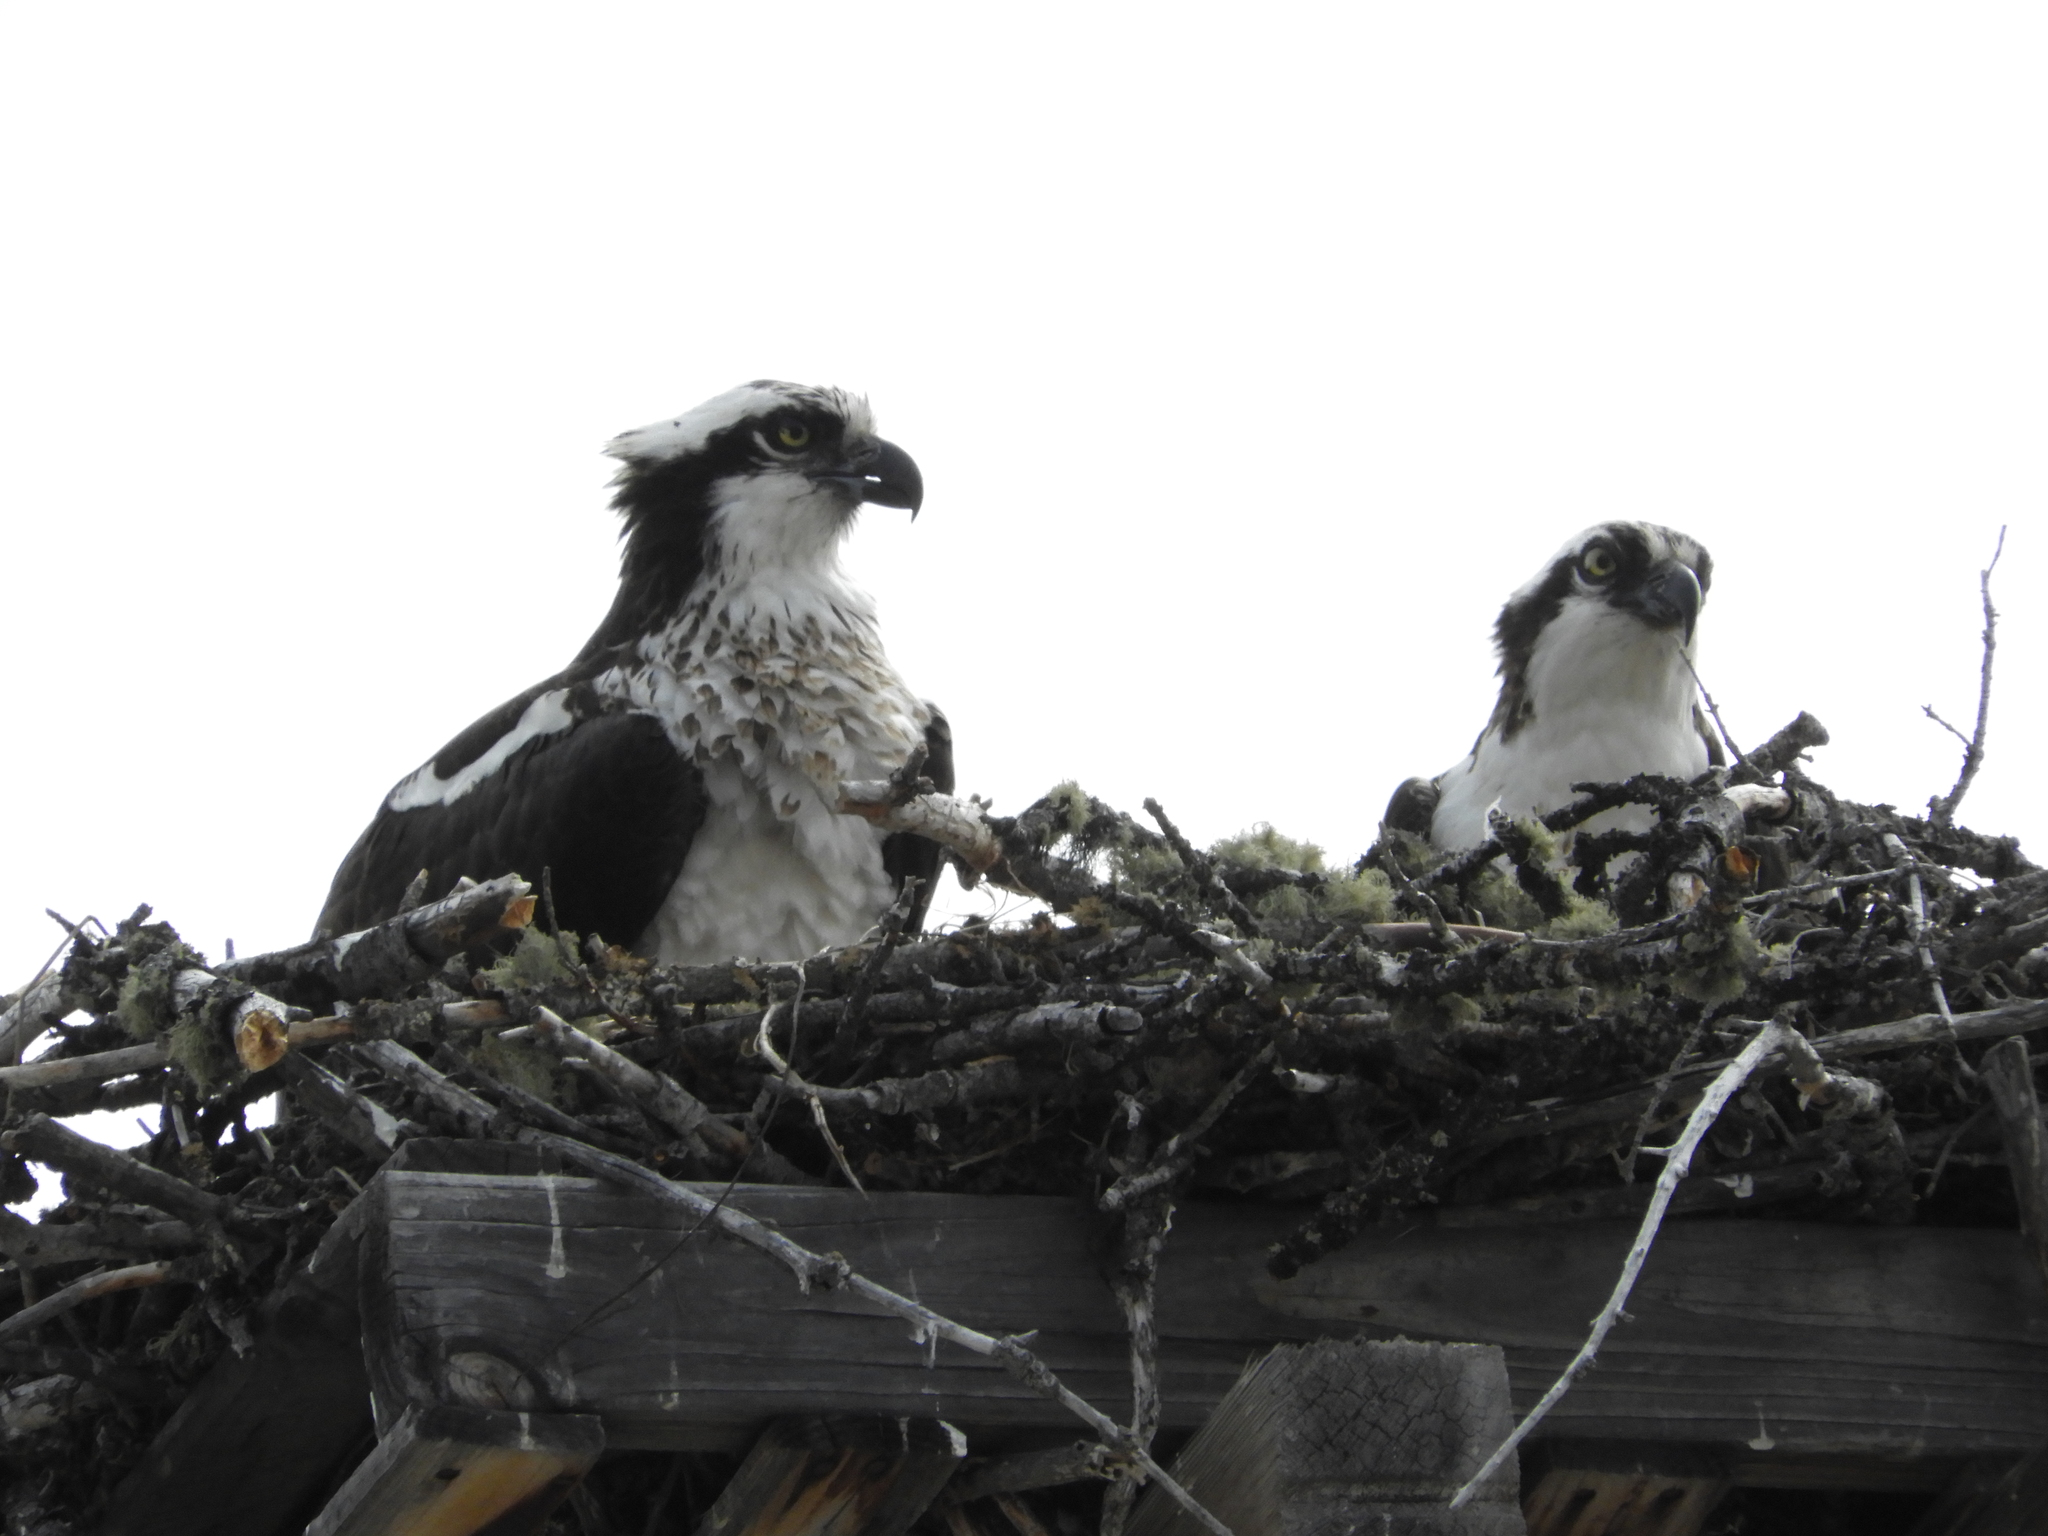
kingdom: Animalia
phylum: Chordata
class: Aves
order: Accipitriformes
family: Pandionidae
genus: Pandion
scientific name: Pandion haliaetus
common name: Osprey
